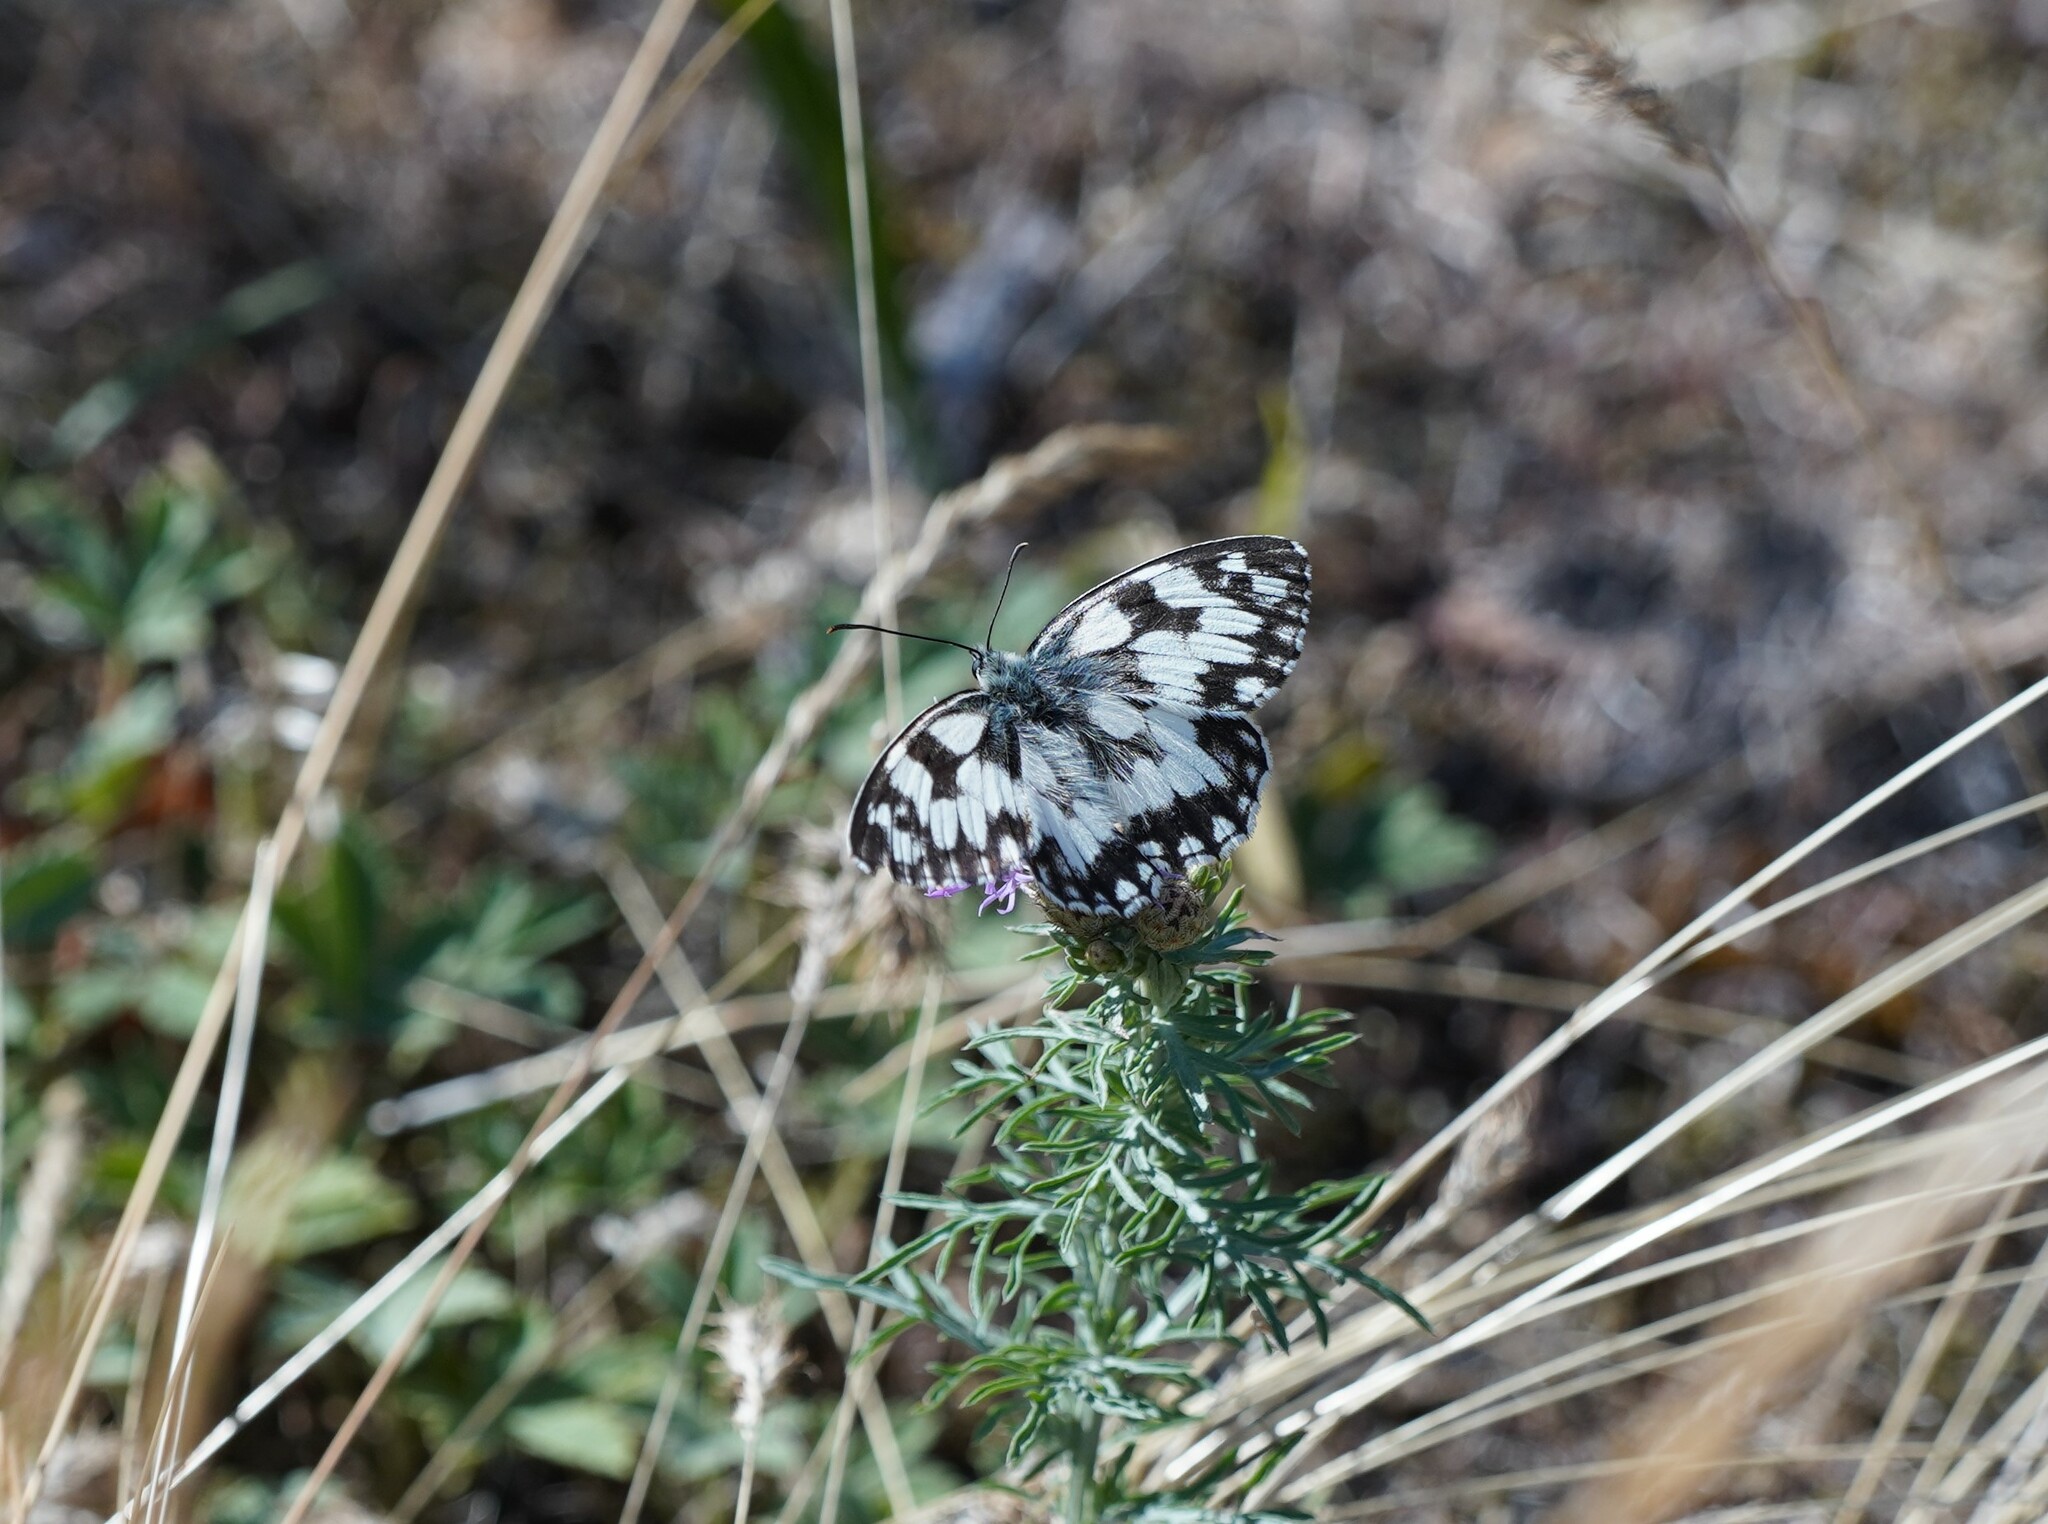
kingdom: Animalia
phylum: Arthropoda
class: Insecta
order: Lepidoptera
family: Nymphalidae
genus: Melanargia
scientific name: Melanargia galathea
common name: Marbled white
